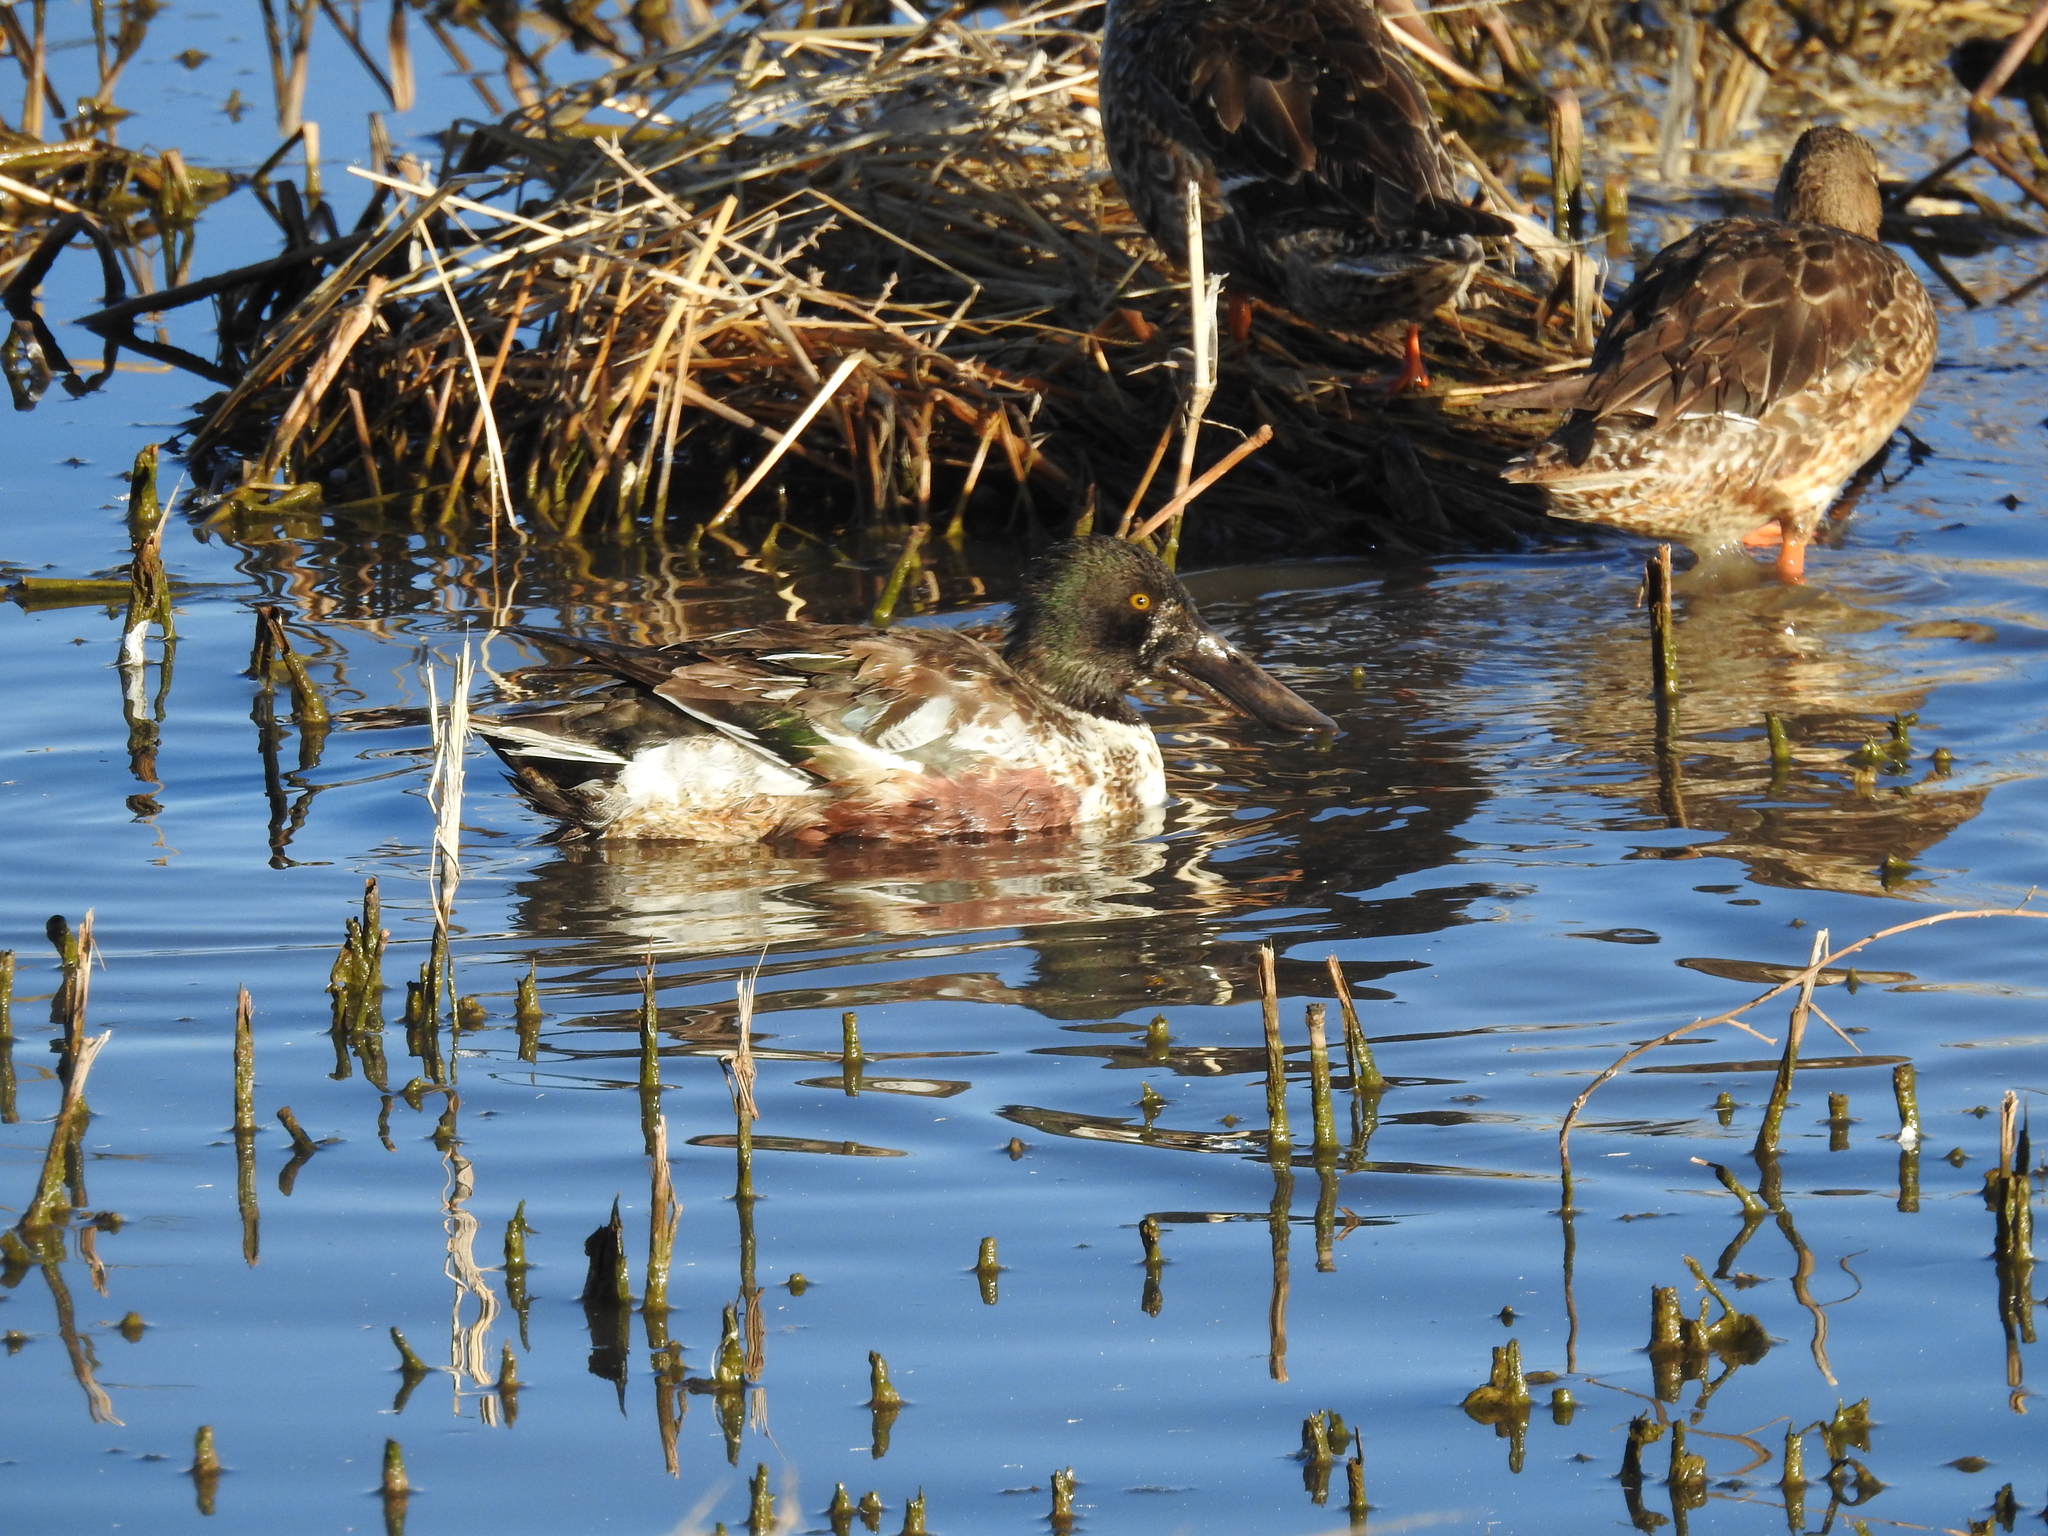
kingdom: Animalia
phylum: Chordata
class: Aves
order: Anseriformes
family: Anatidae
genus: Spatula
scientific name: Spatula clypeata
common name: Northern shoveler
